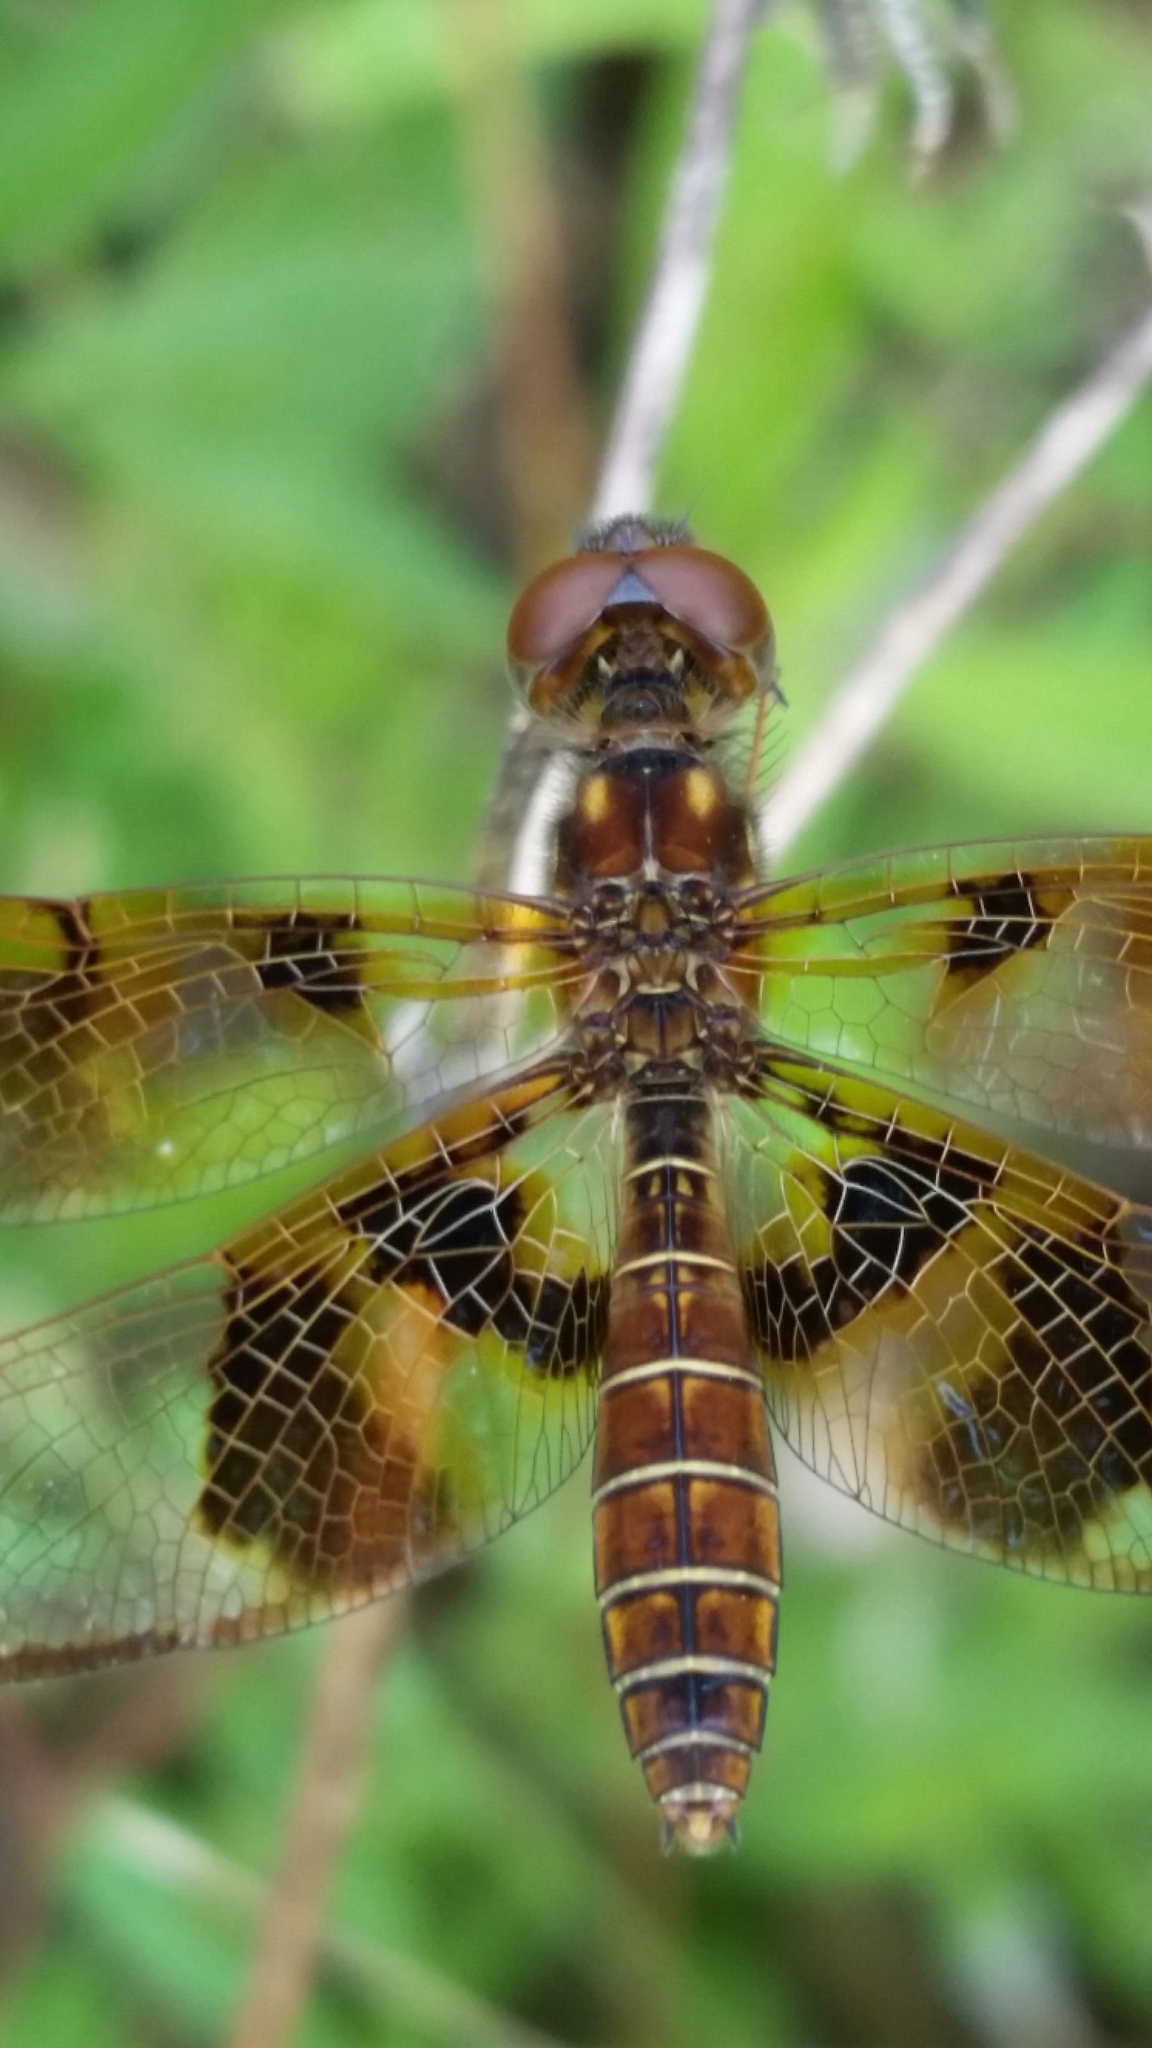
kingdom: Animalia
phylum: Arthropoda
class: Insecta
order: Odonata
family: Libellulidae
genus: Perithemis
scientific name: Perithemis tenera
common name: Eastern amberwing
